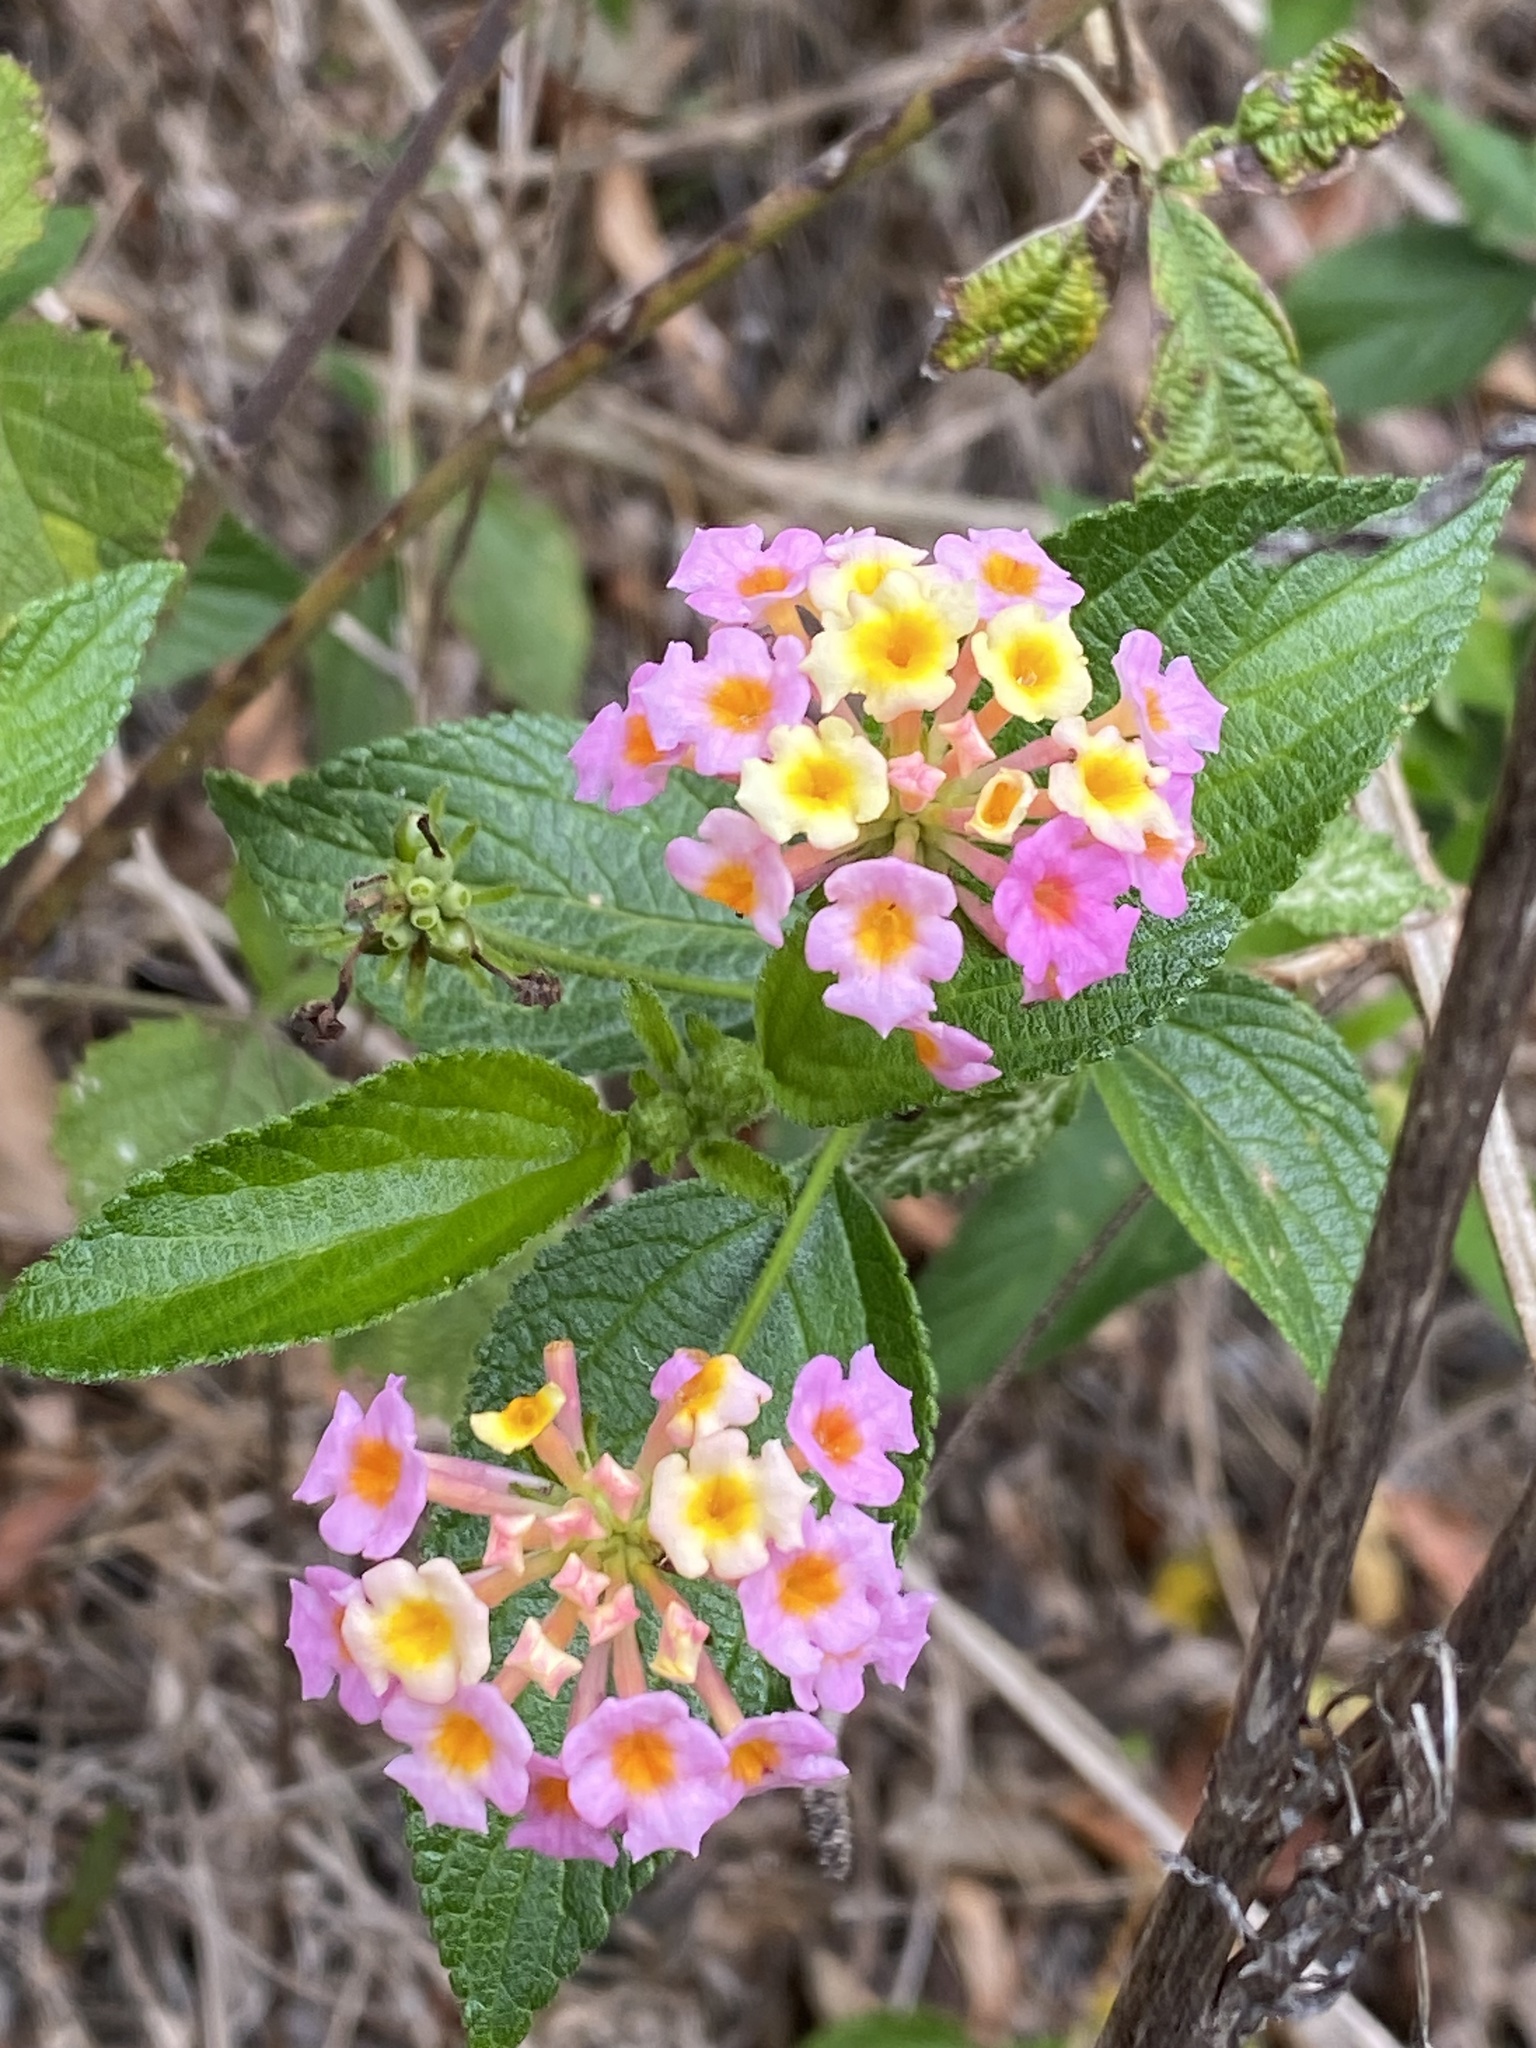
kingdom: Plantae
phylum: Tracheophyta
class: Magnoliopsida
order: Lamiales
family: Verbenaceae
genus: Lantana
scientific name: Lantana camara
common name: Lantana
